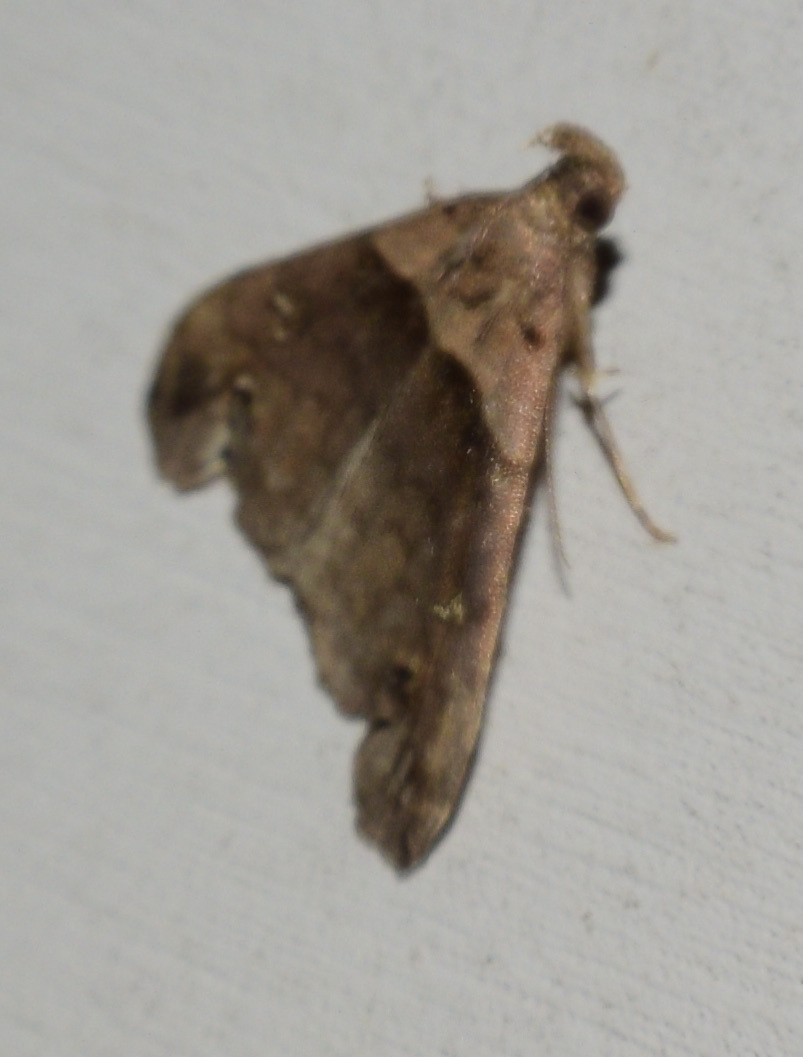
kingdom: Animalia
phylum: Arthropoda
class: Insecta
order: Lepidoptera
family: Erebidae
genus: Lascoria
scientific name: Lascoria ambigualis
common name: Ambiguous moth
